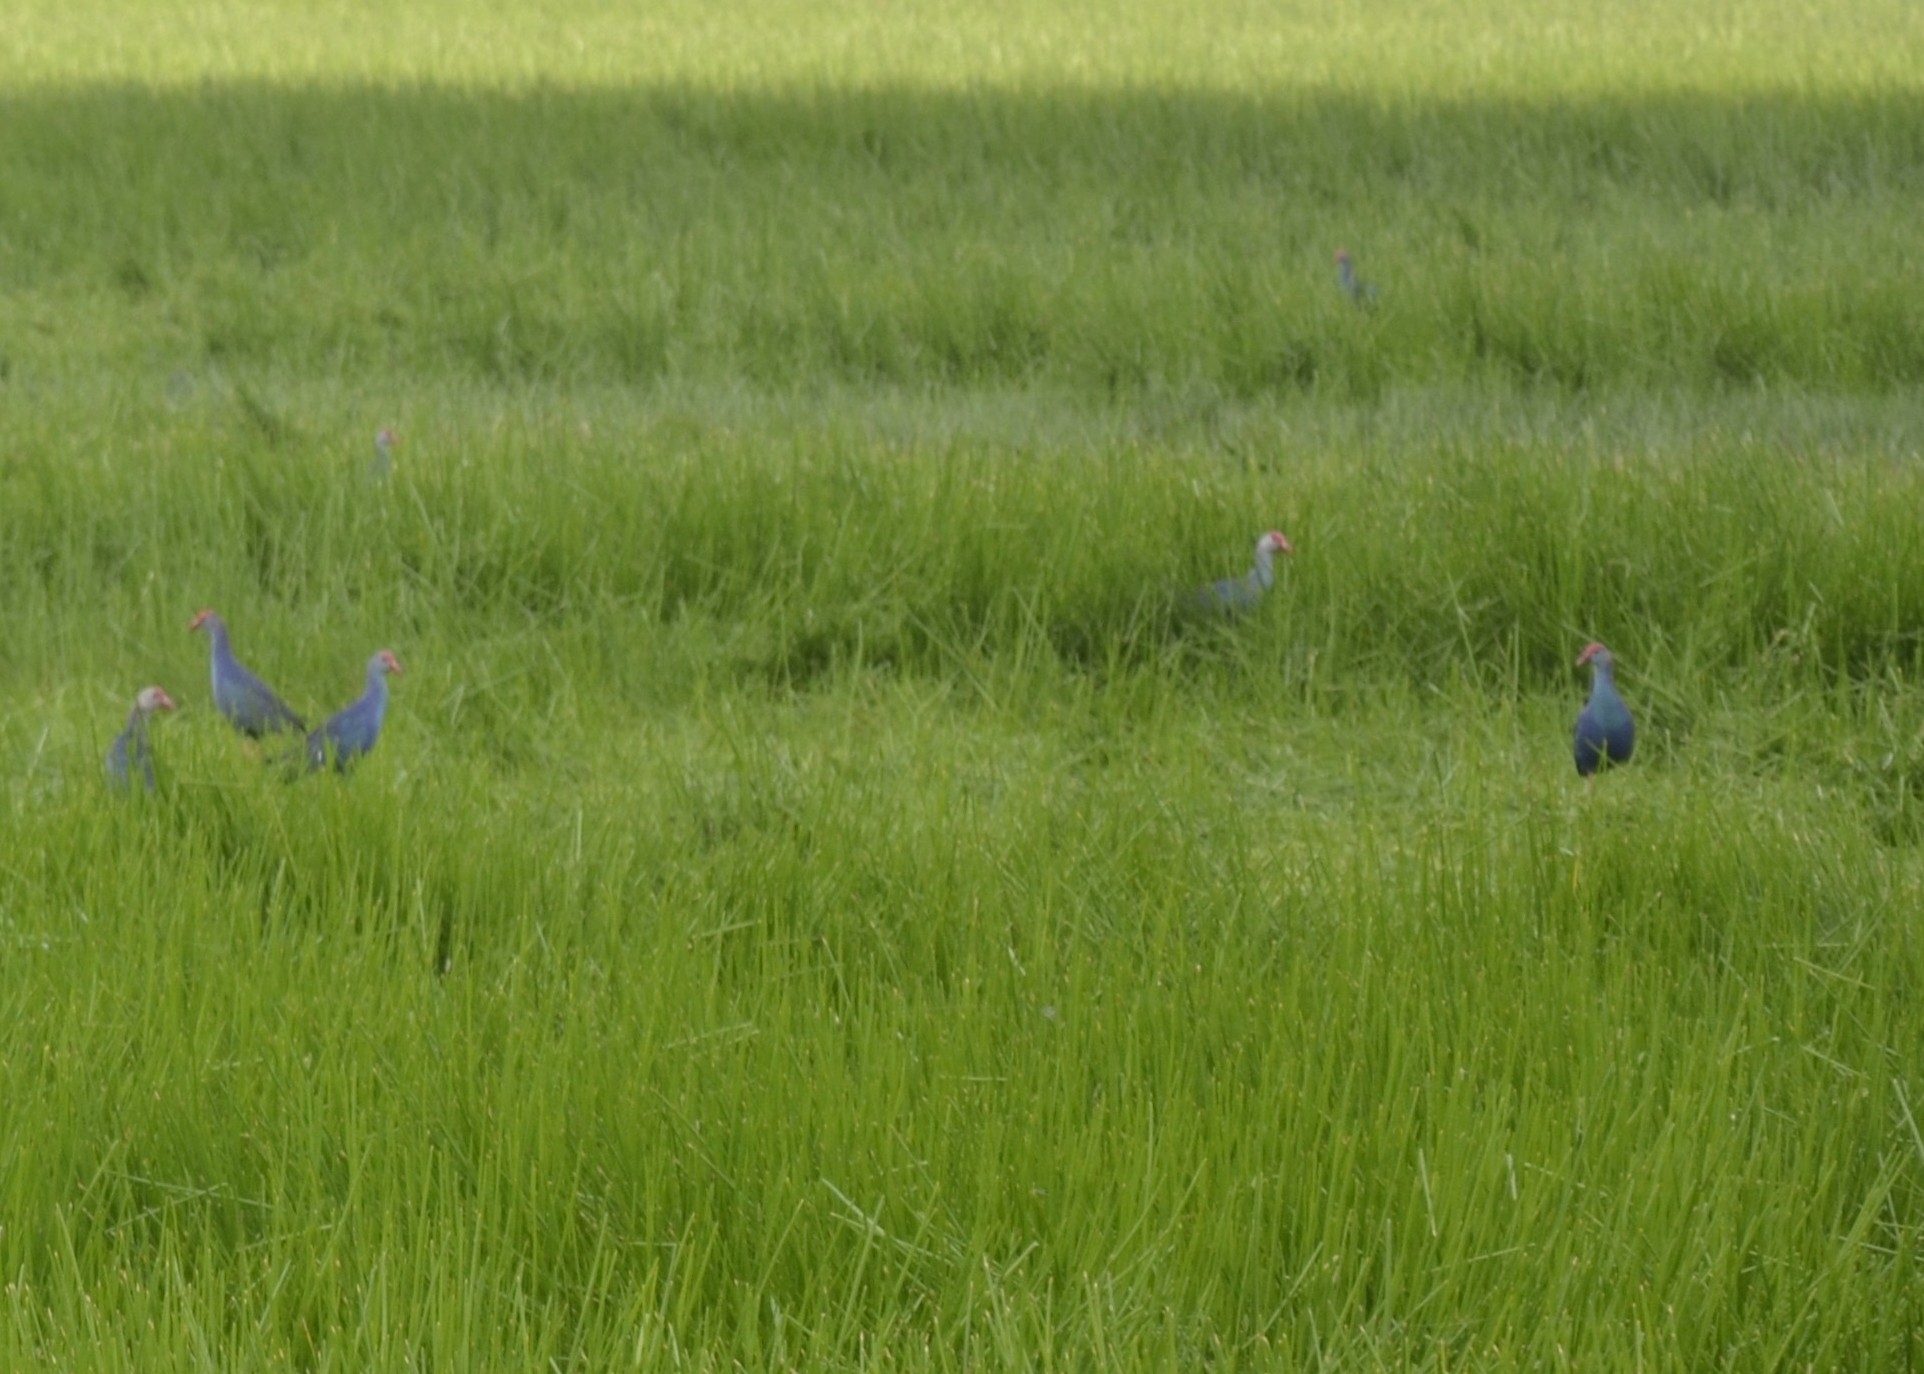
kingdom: Animalia
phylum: Chordata
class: Aves
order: Gruiformes
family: Rallidae
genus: Porphyrio
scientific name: Porphyrio porphyrio
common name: Purple swamphen
